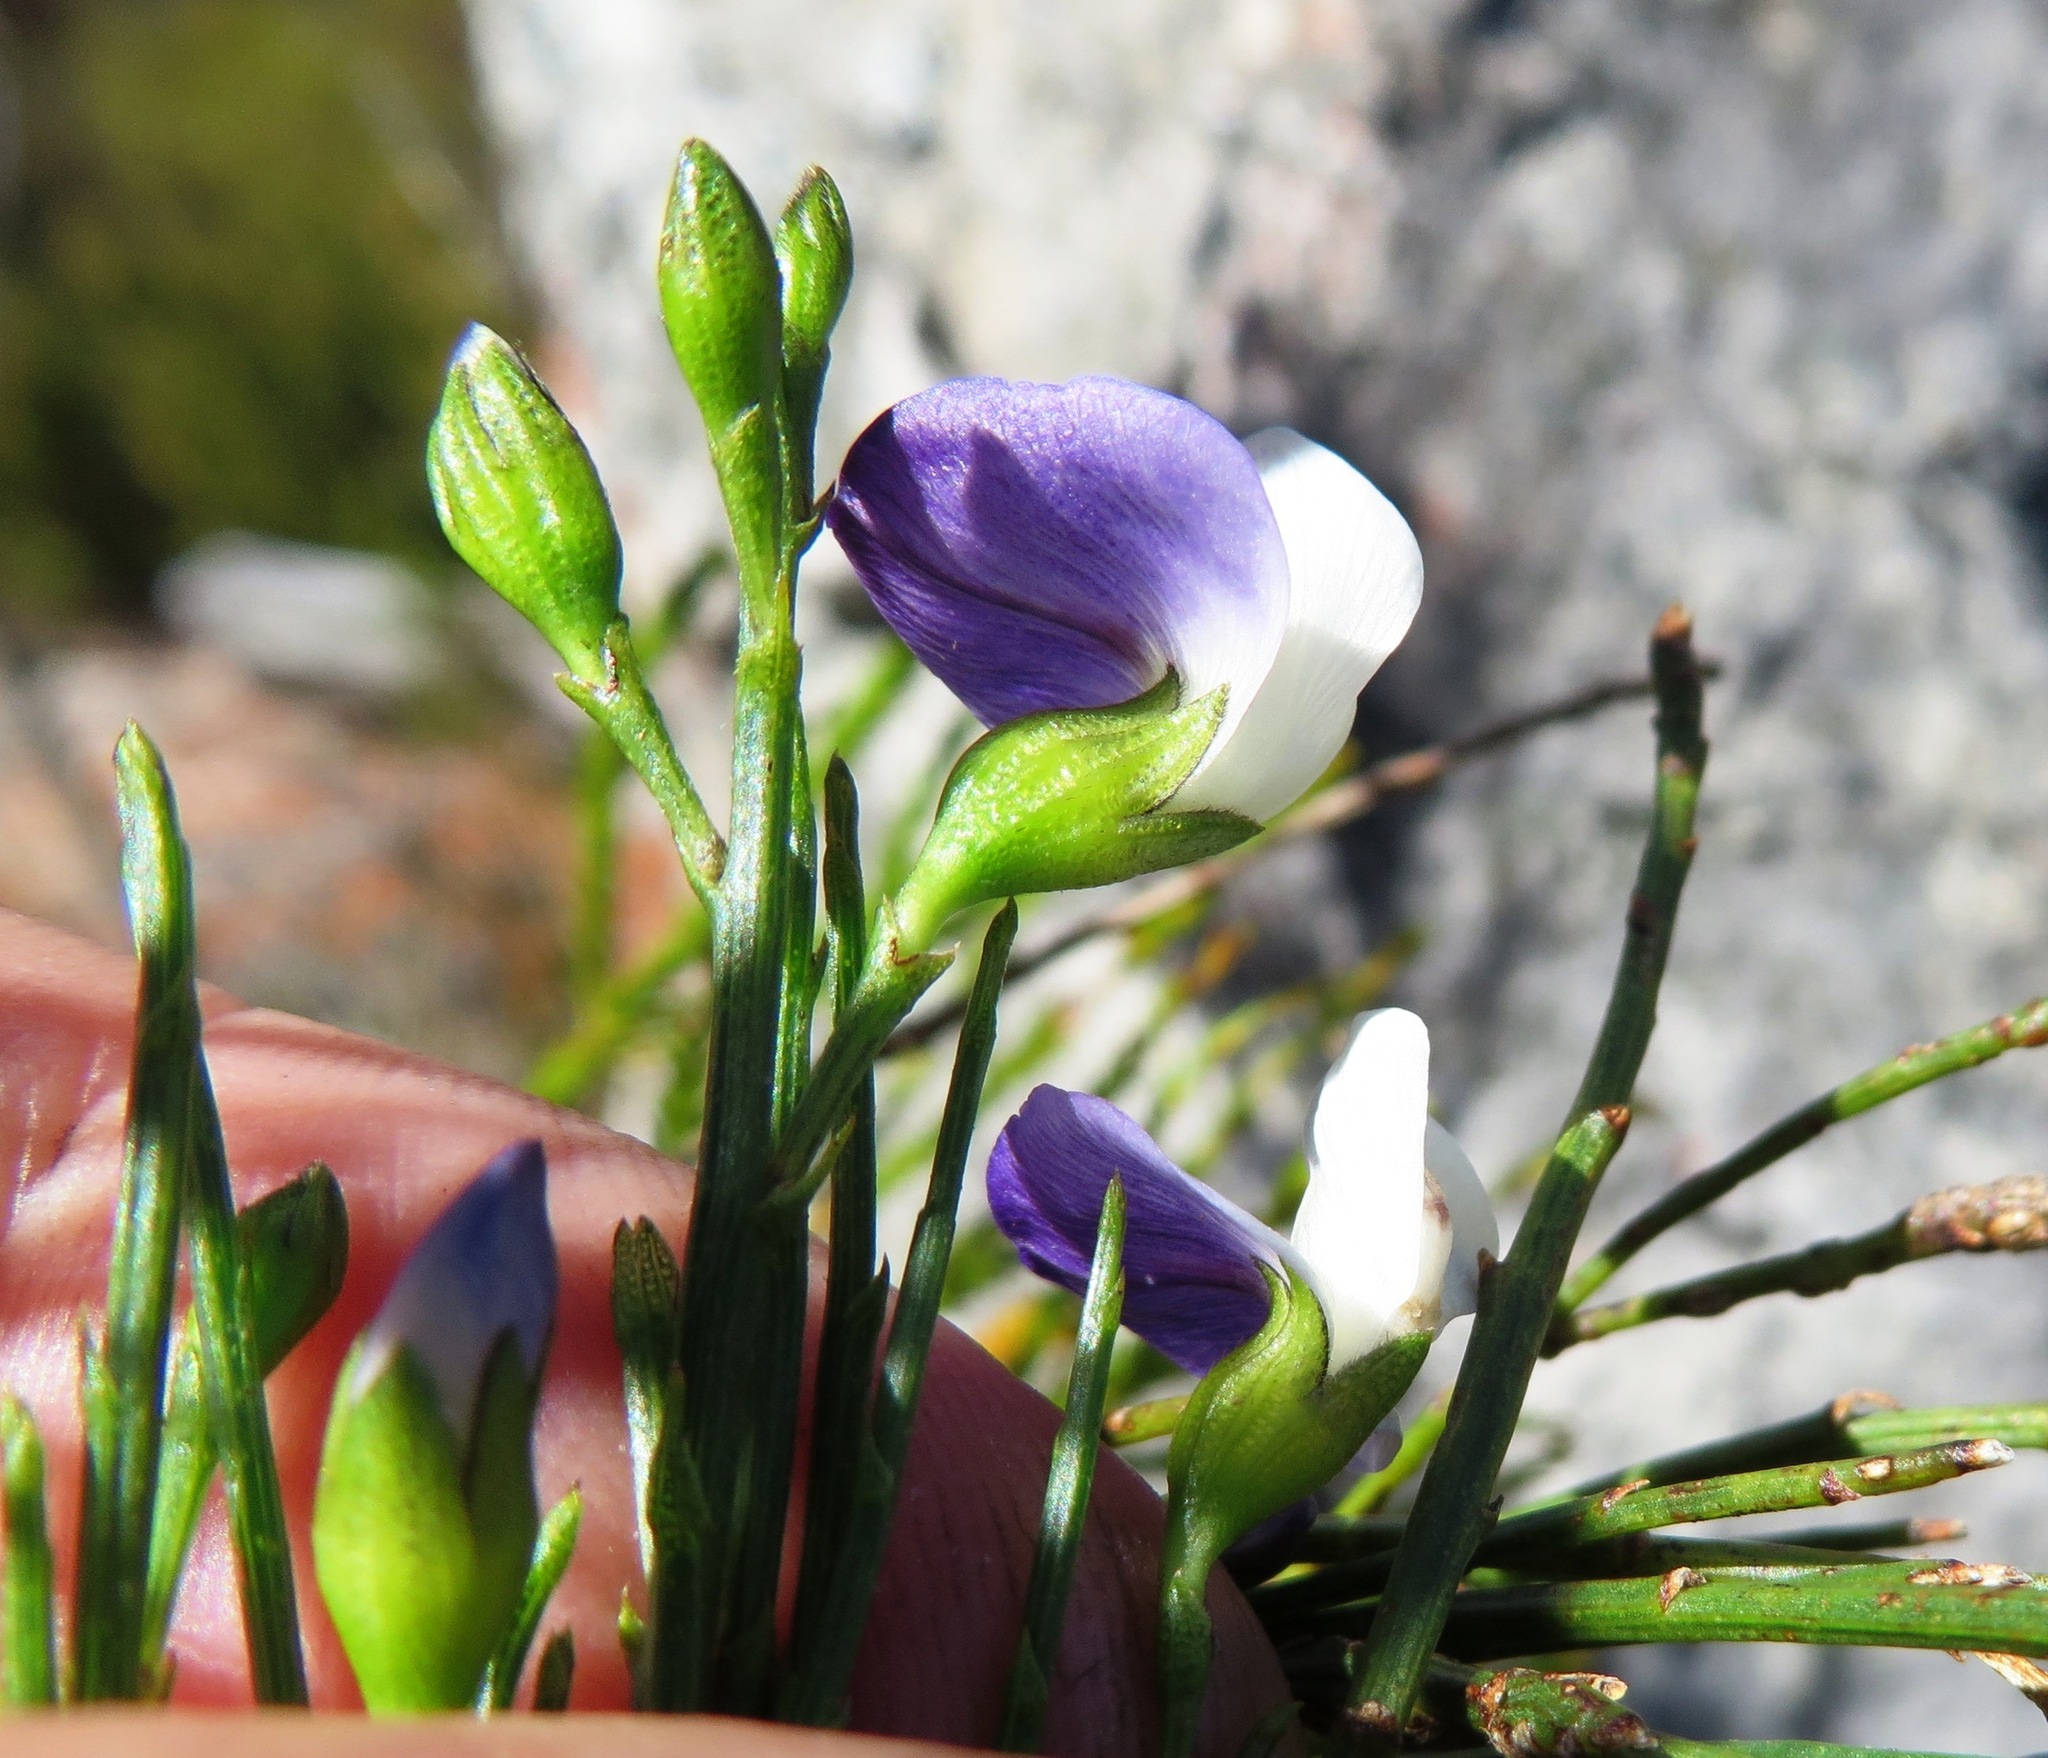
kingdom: Plantae
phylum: Tracheophyta
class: Magnoliopsida
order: Fabales
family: Fabaceae
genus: Psoralea
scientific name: Psoralea usitata
